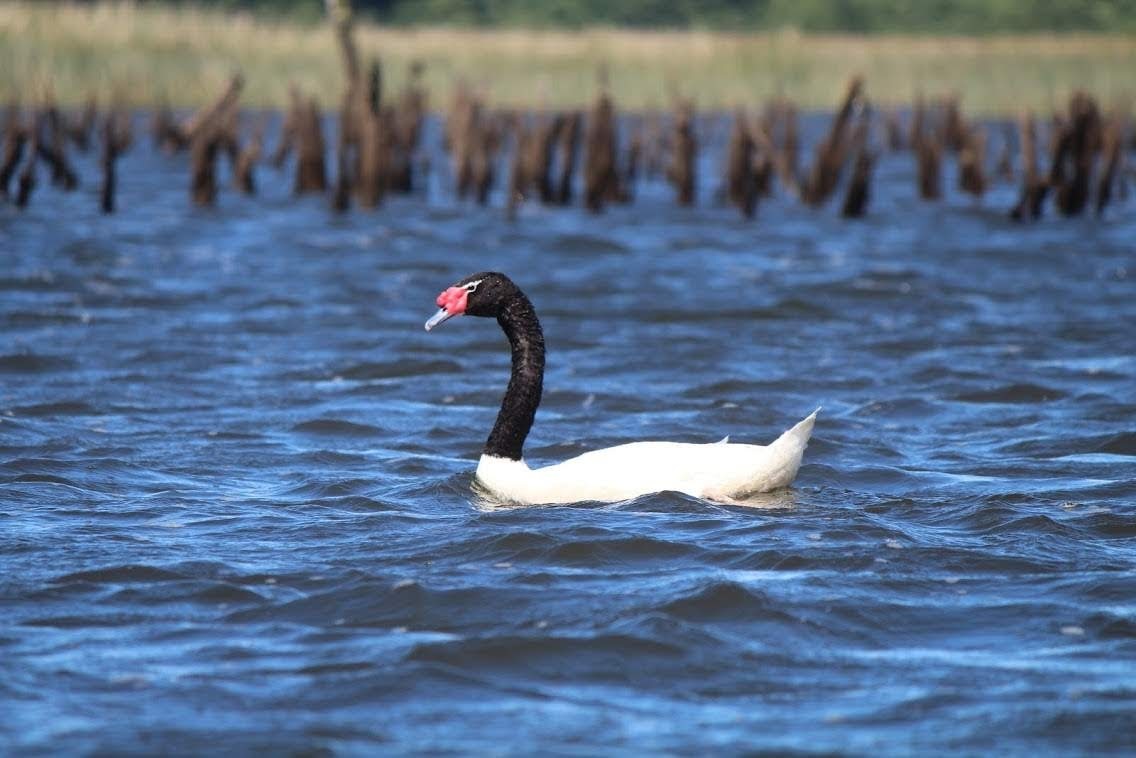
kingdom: Animalia
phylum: Chordata
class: Aves
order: Anseriformes
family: Anatidae
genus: Cygnus
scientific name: Cygnus melancoryphus
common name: Black-necked swan
